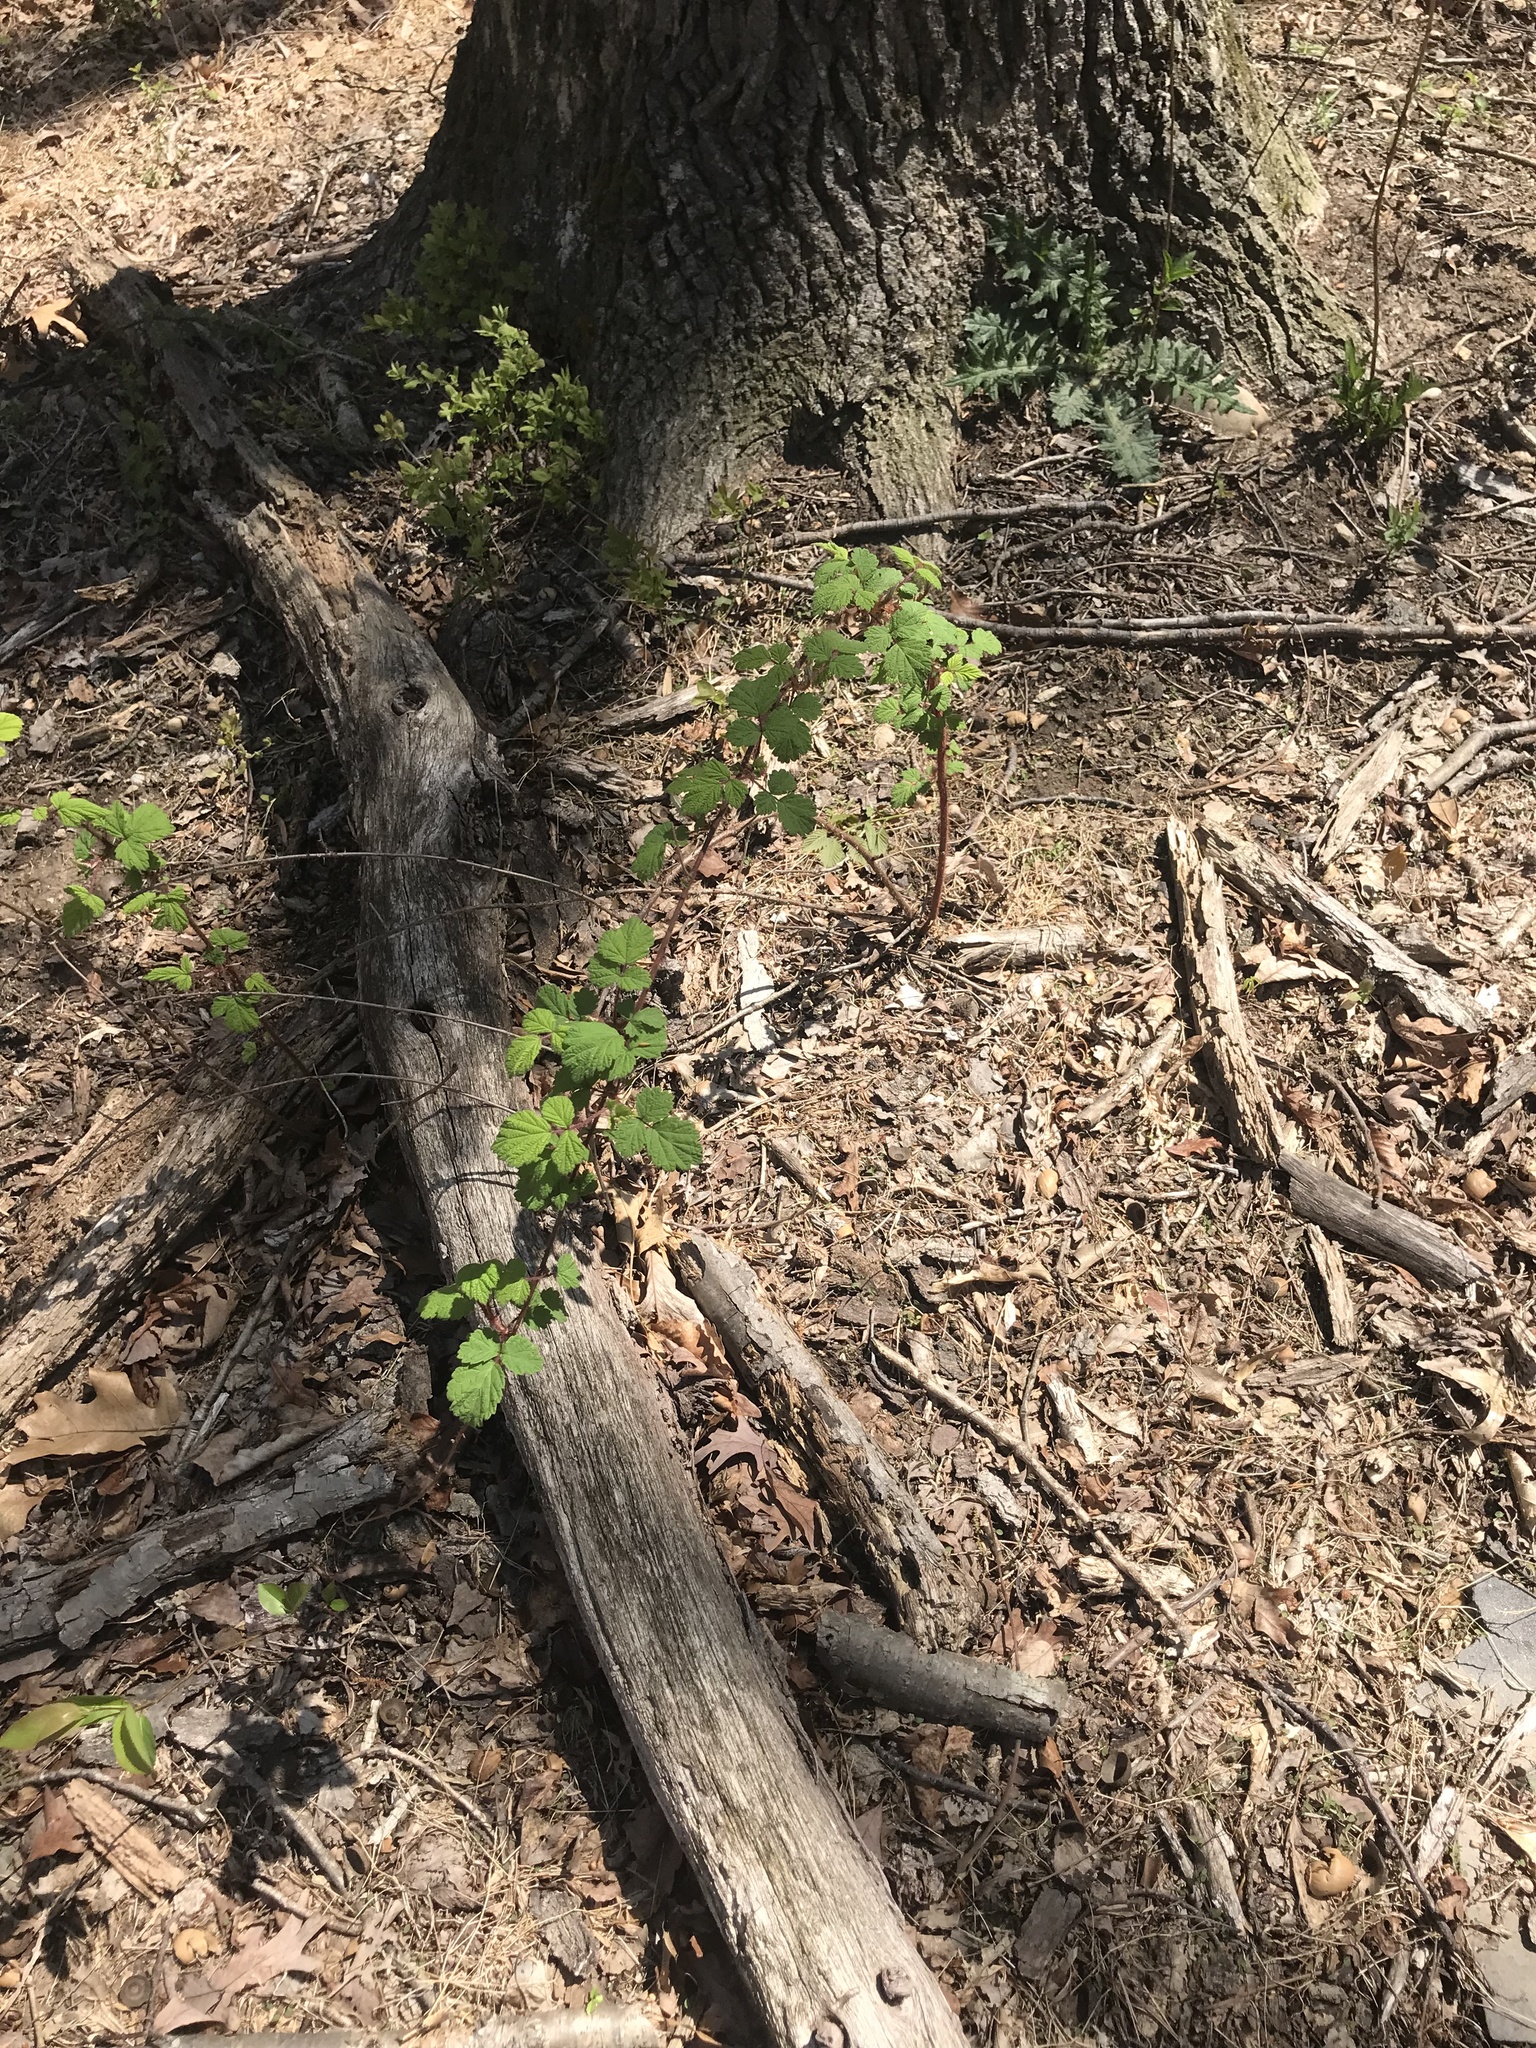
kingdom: Plantae
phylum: Tracheophyta
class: Magnoliopsida
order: Rosales
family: Rosaceae
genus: Rubus
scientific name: Rubus phoenicolasius
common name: Japanese wineberry
